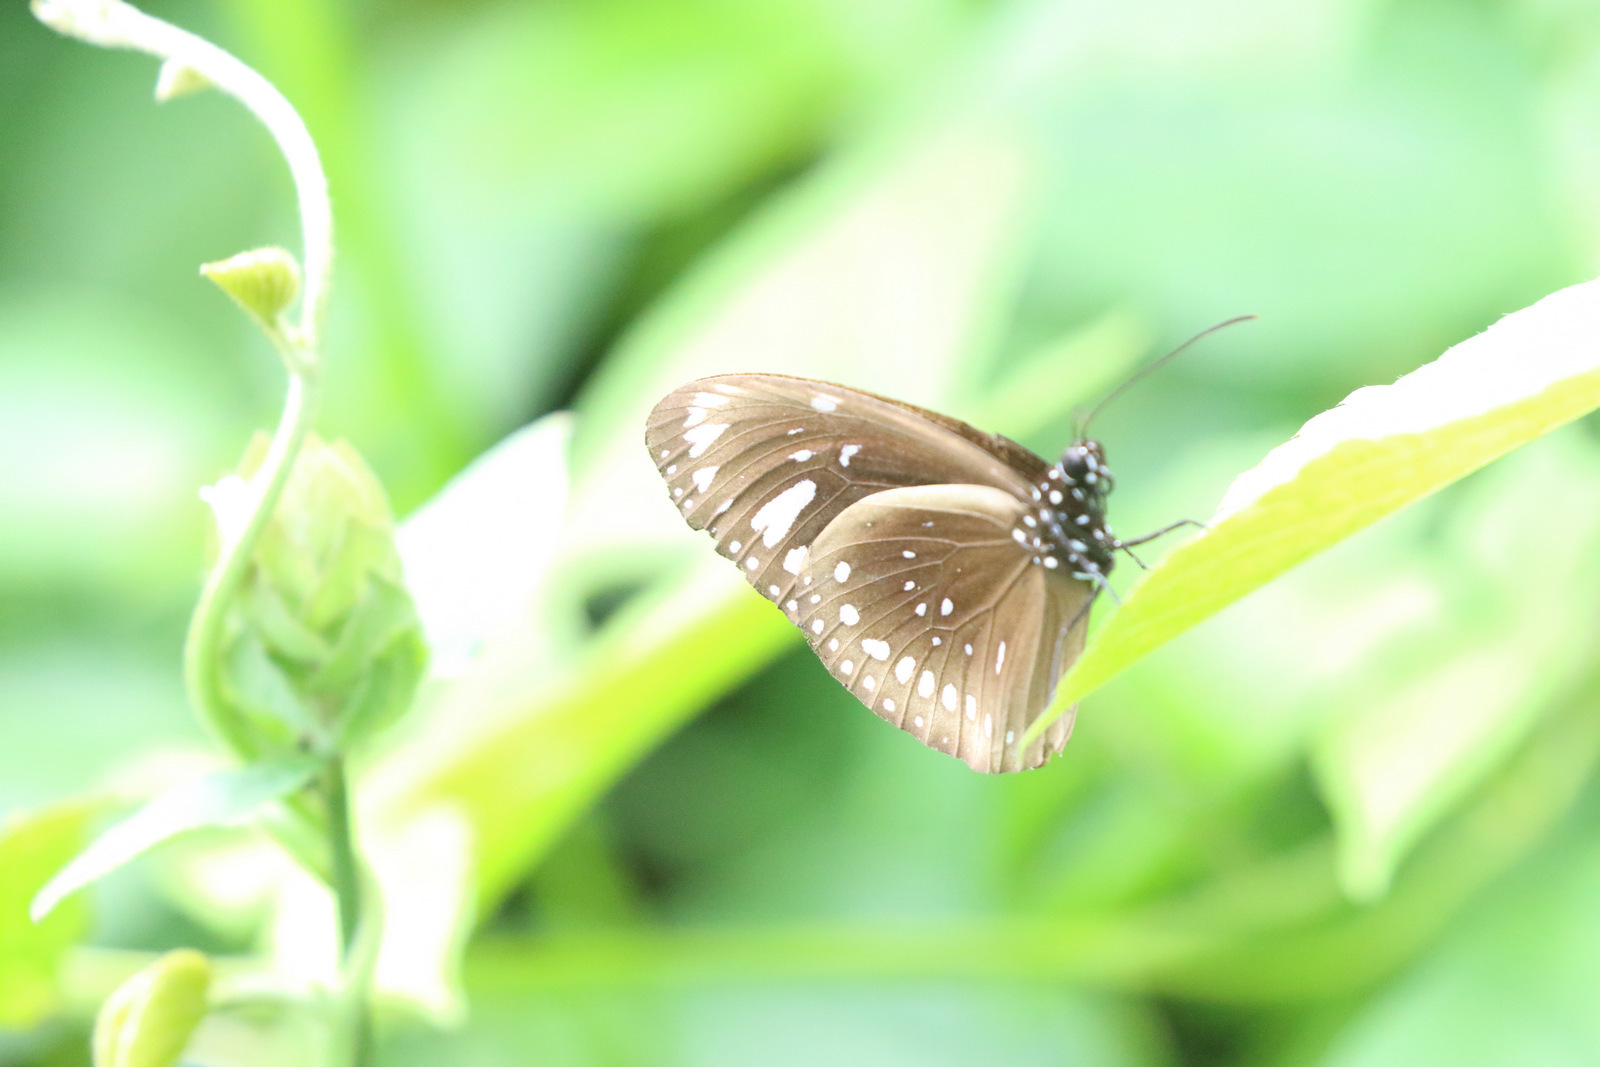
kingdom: Animalia
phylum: Arthropoda
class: Insecta
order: Lepidoptera
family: Nymphalidae
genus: Euploea
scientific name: Euploea lewinii
